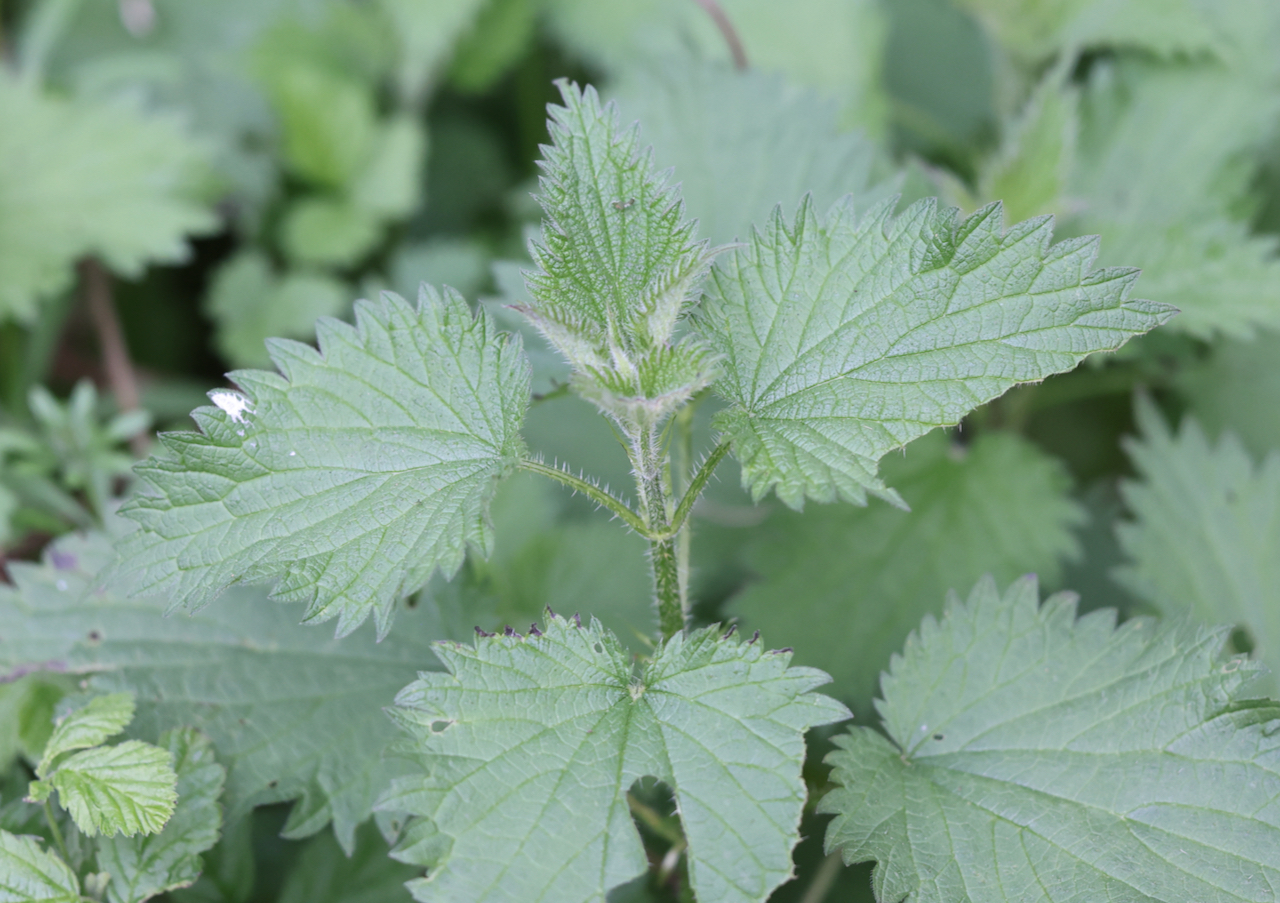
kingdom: Plantae
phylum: Tracheophyta
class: Magnoliopsida
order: Rosales
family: Urticaceae
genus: Urtica
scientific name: Urtica dioica
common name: Common nettle
